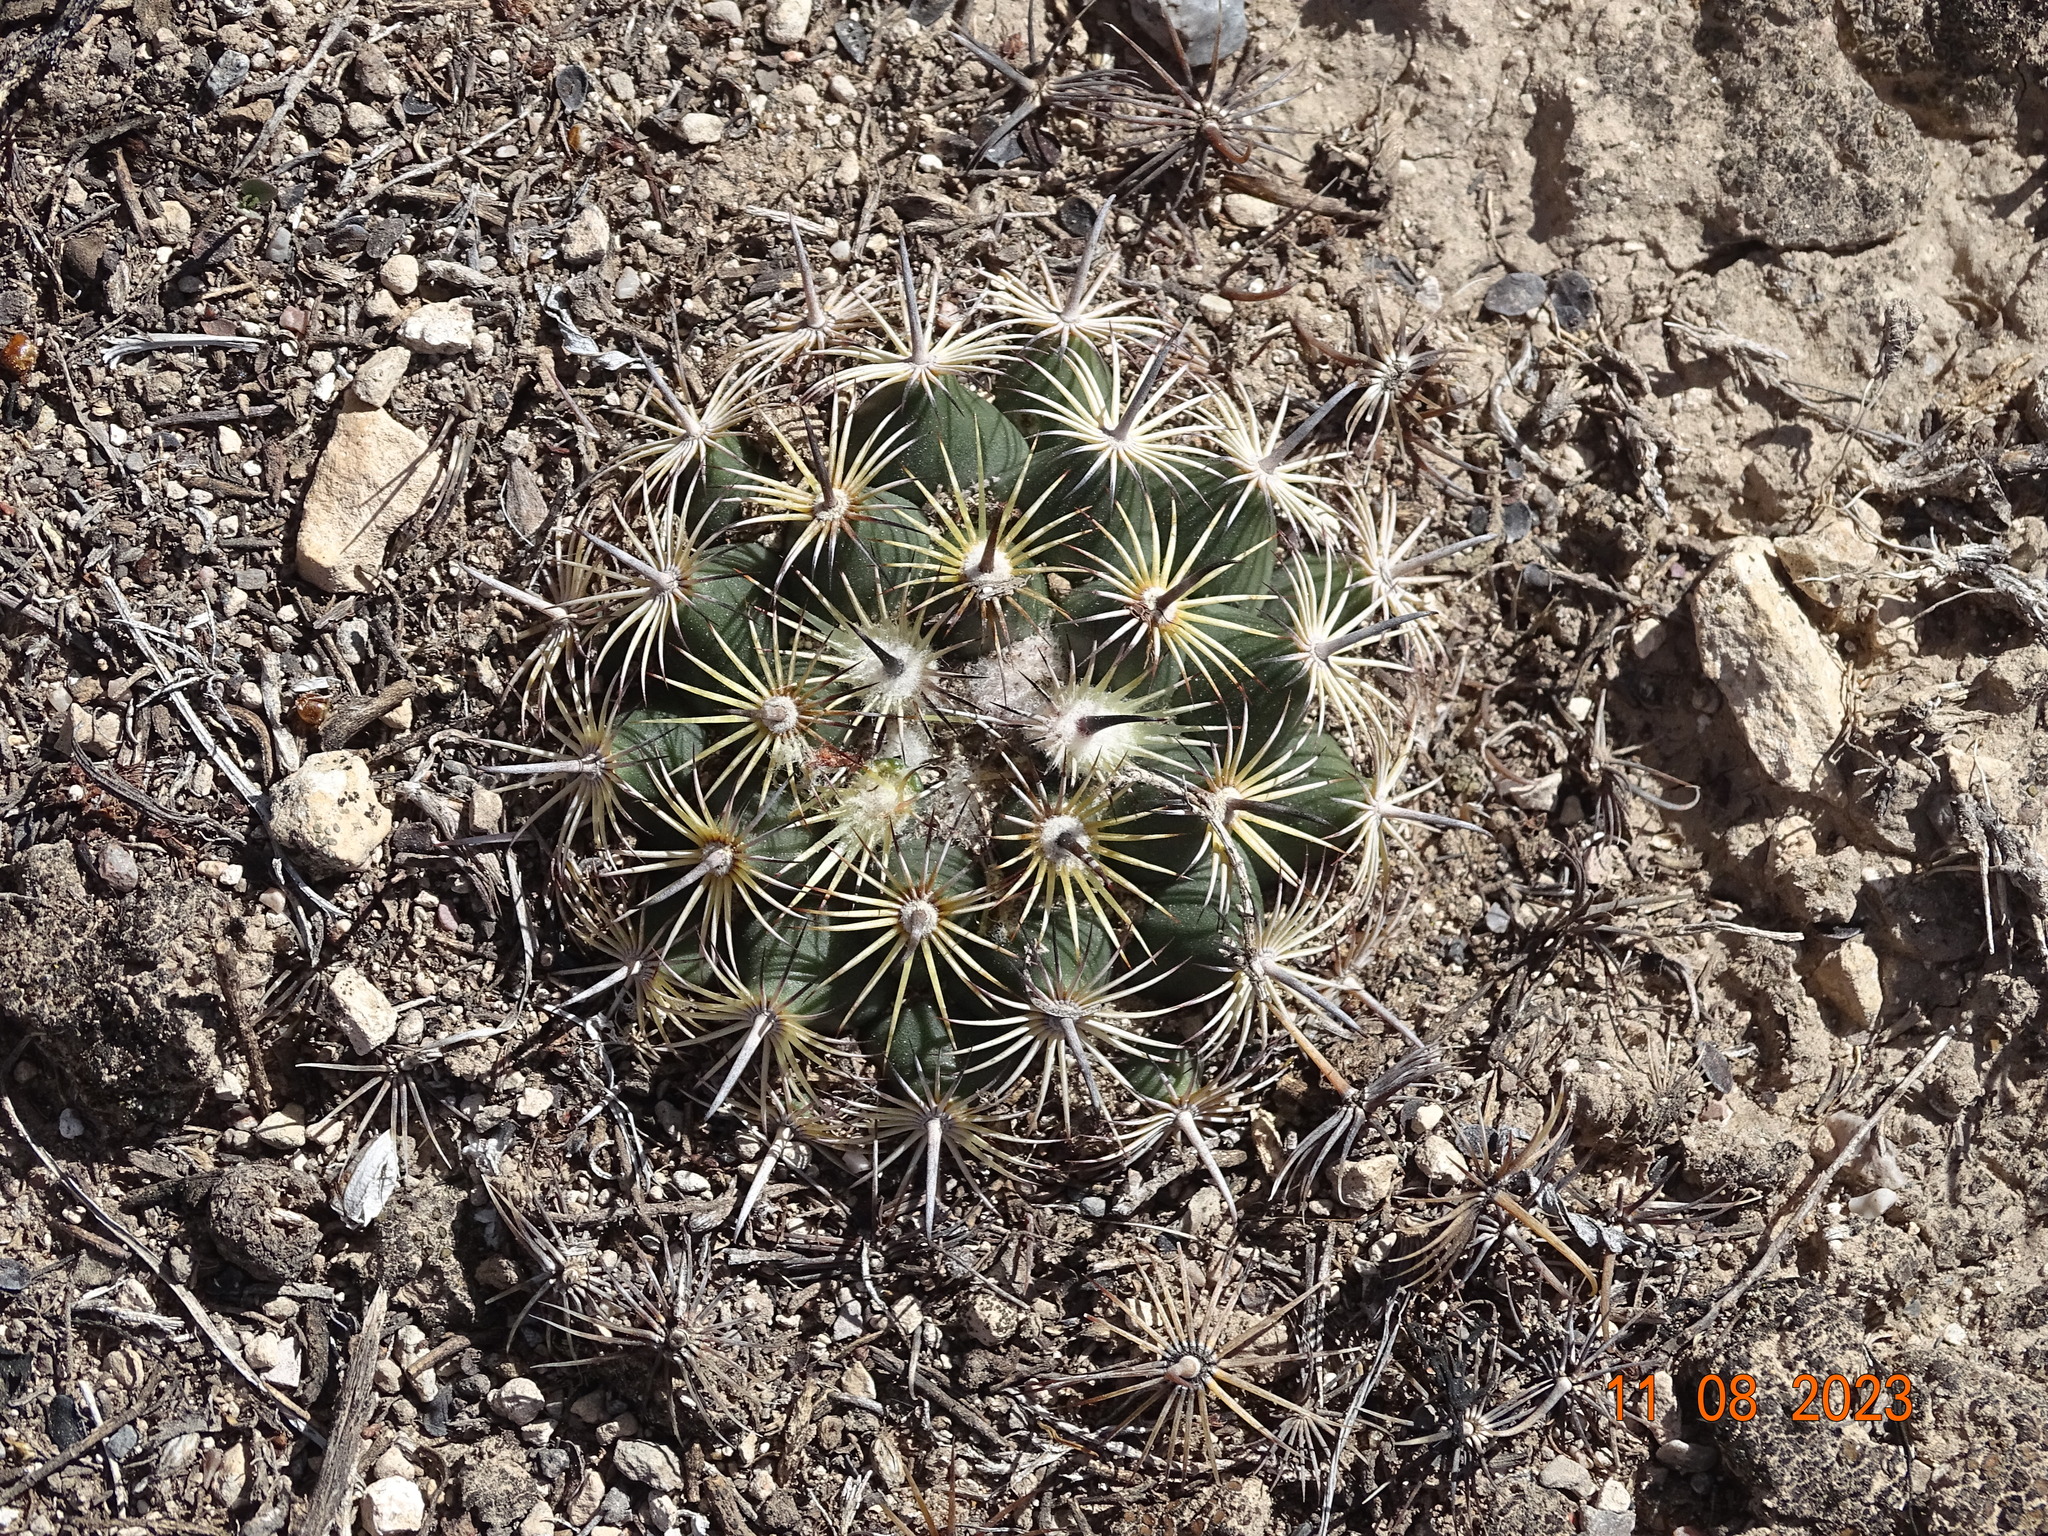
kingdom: Plantae
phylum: Tracheophyta
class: Magnoliopsida
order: Caryophyllales
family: Cactaceae
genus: Coryphantha
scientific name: Coryphantha delicata
